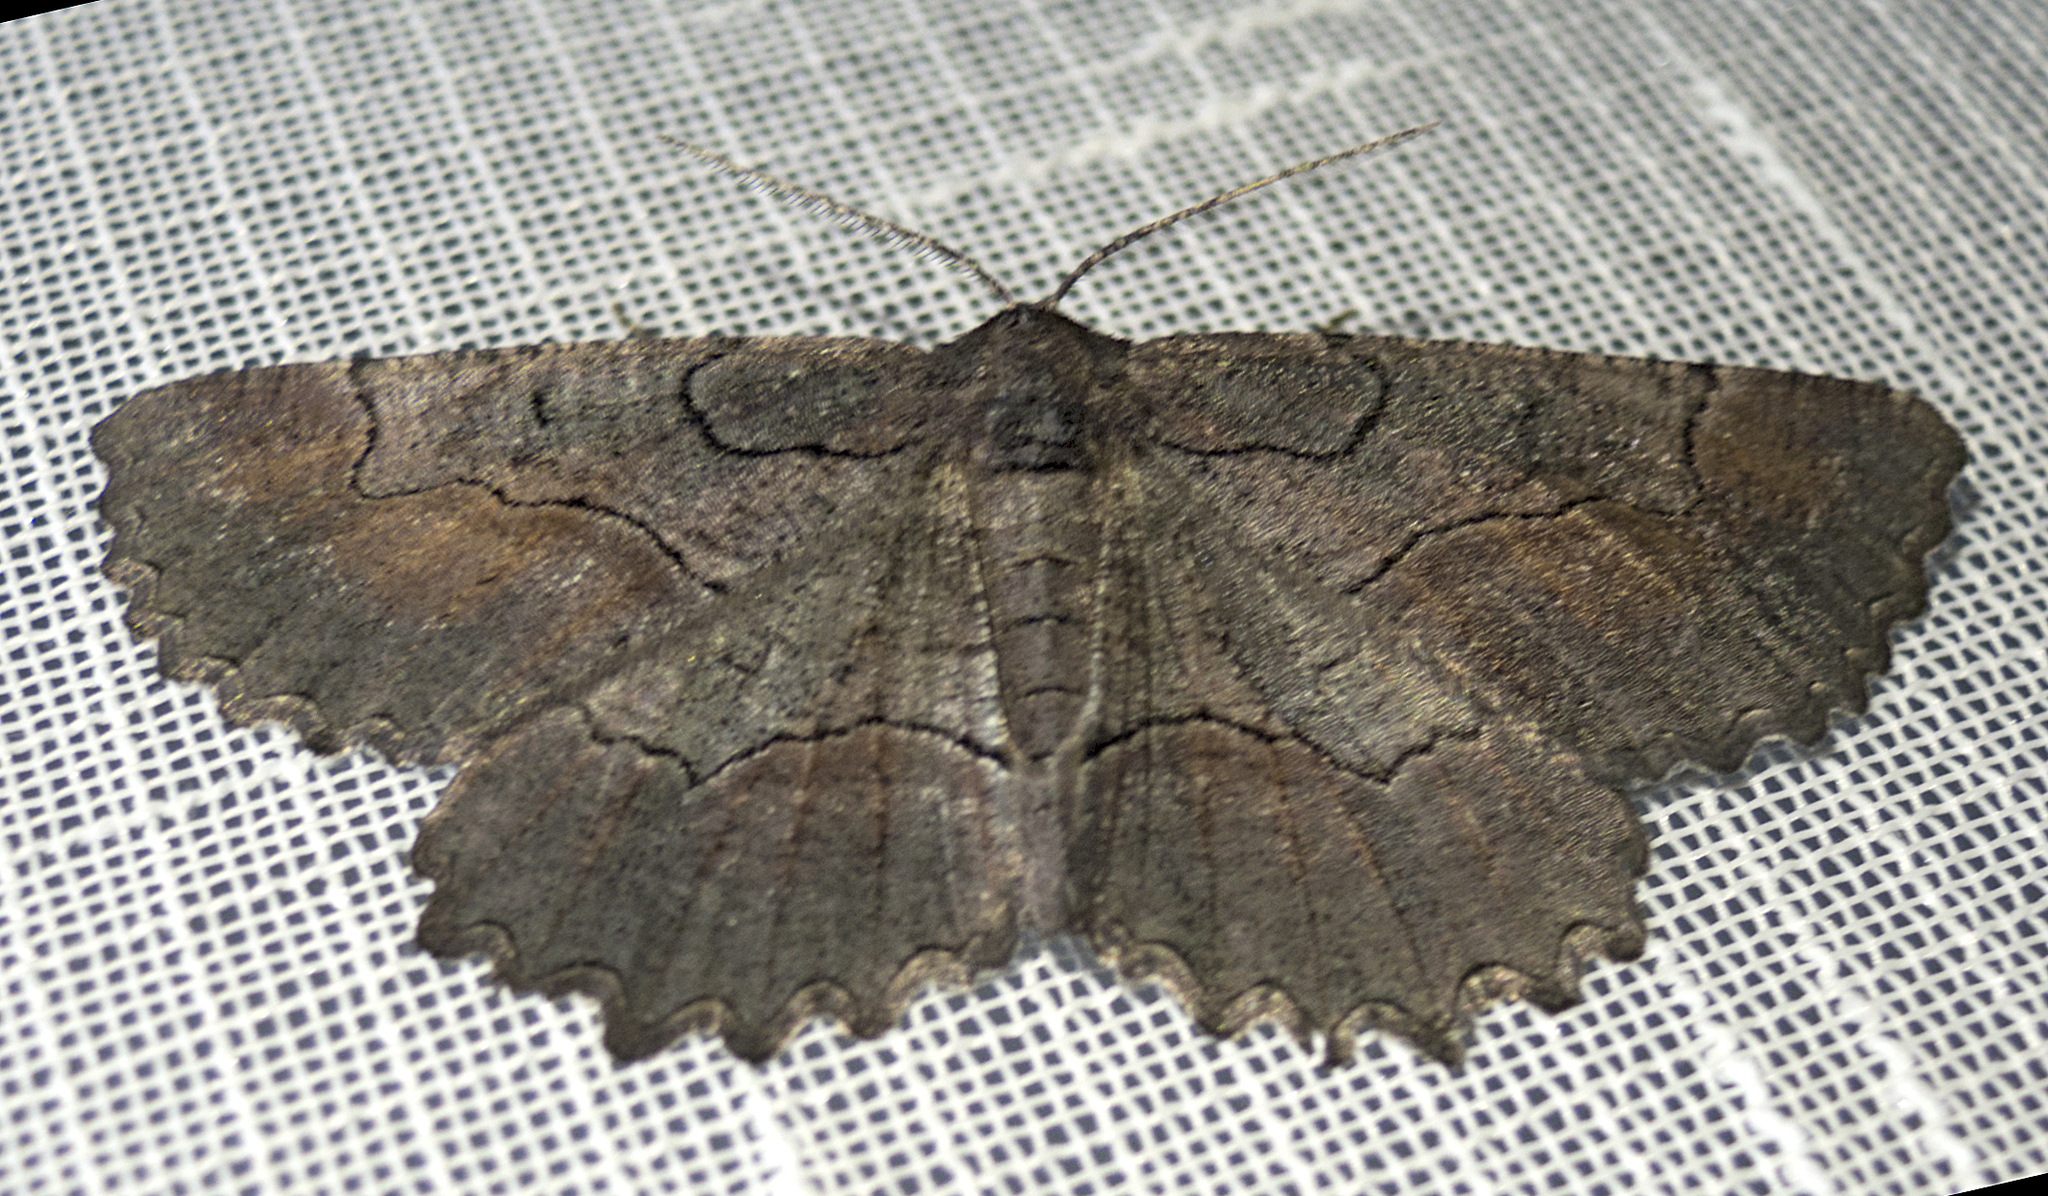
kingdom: Animalia
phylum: Arthropoda
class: Insecta
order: Lepidoptera
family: Geometridae
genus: Nychiodes
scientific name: Nychiodes waltheri
